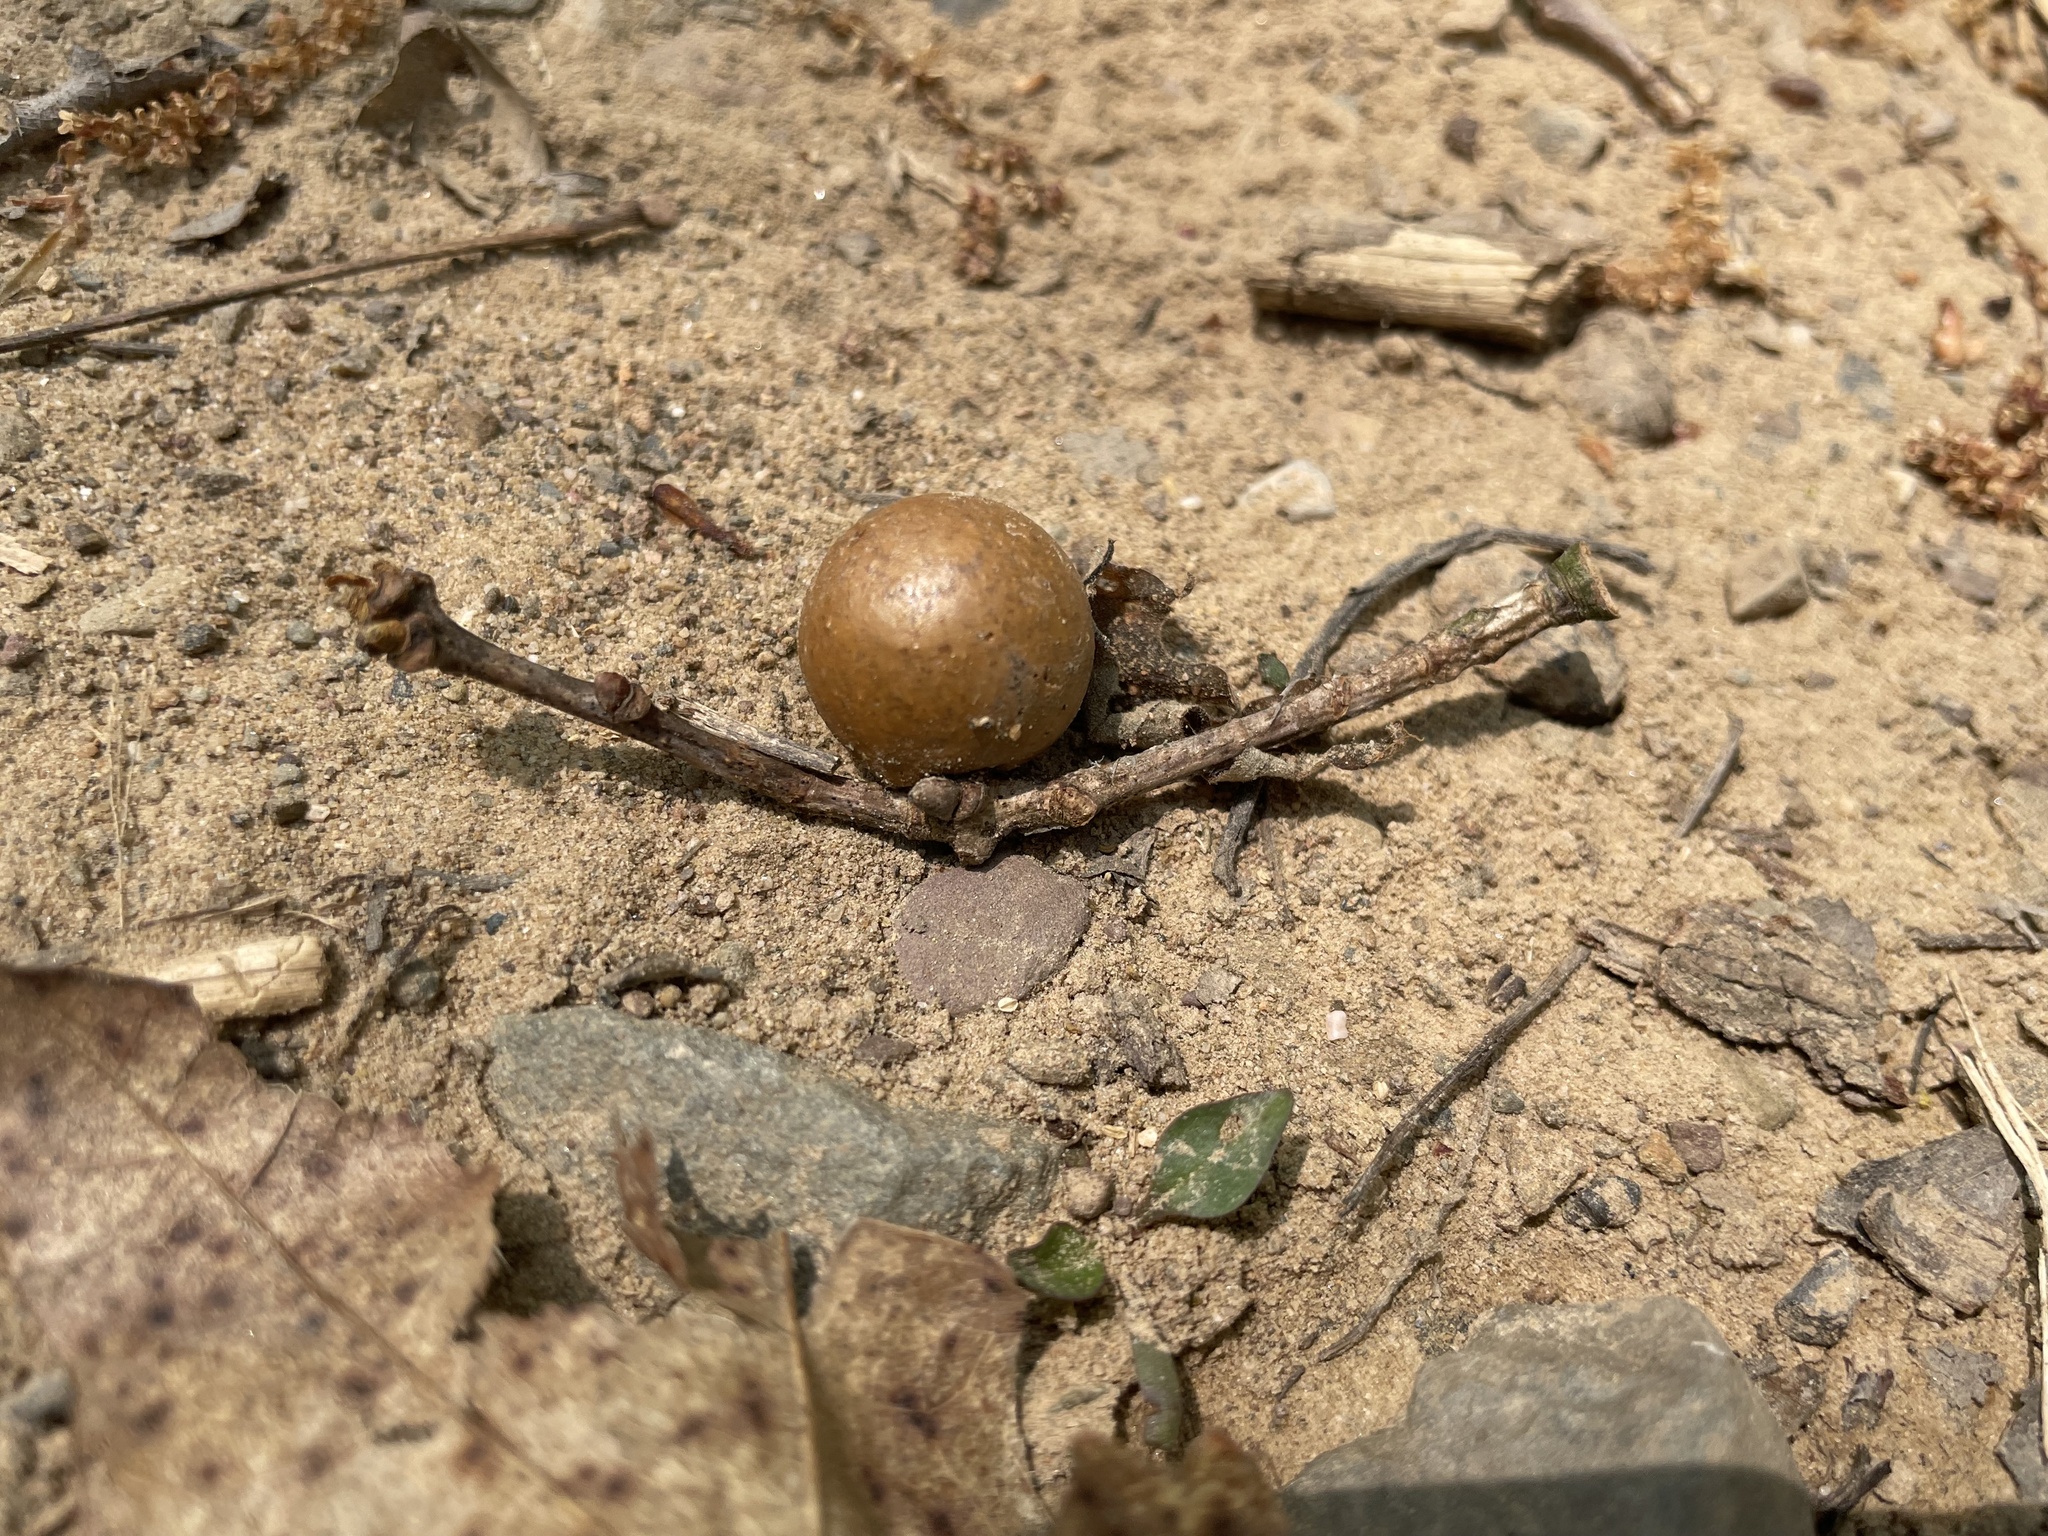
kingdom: Animalia
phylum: Arthropoda
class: Insecta
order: Hymenoptera
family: Cynipidae
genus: Disholcaspis
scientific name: Disholcaspis quercusglobulus
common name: Round bullet gall wasp
